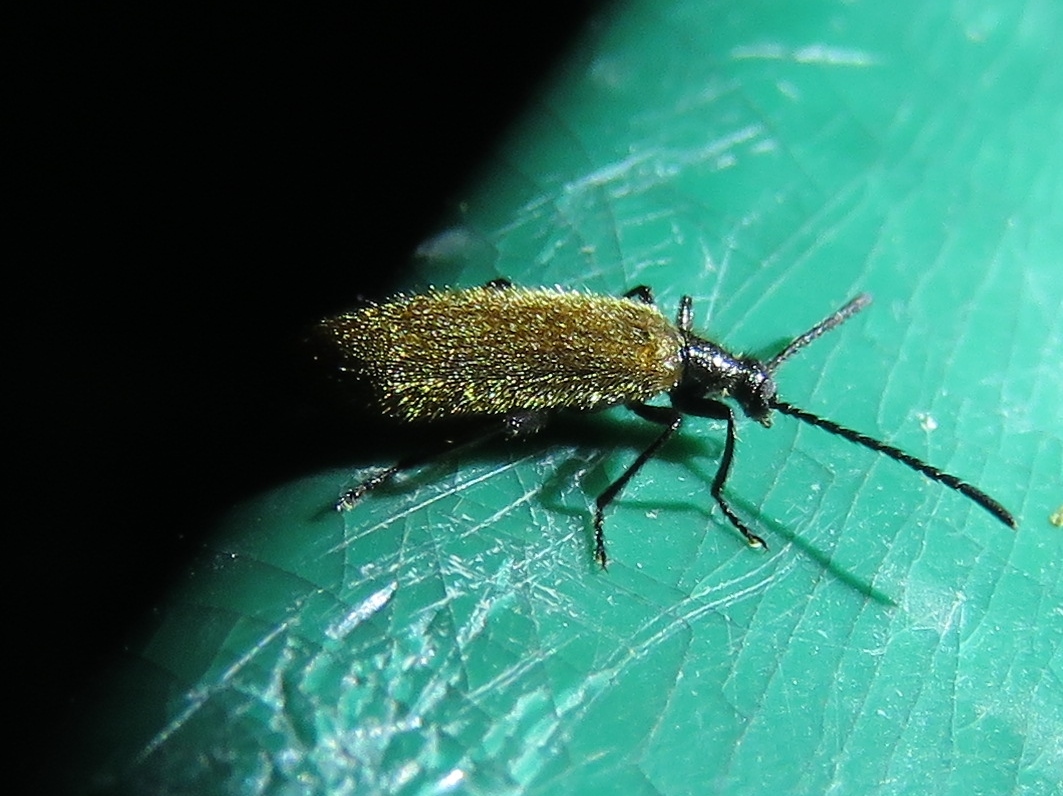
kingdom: Animalia
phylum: Arthropoda
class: Insecta
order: Coleoptera
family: Tenebrionidae
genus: Lagria
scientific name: Lagria hirta
